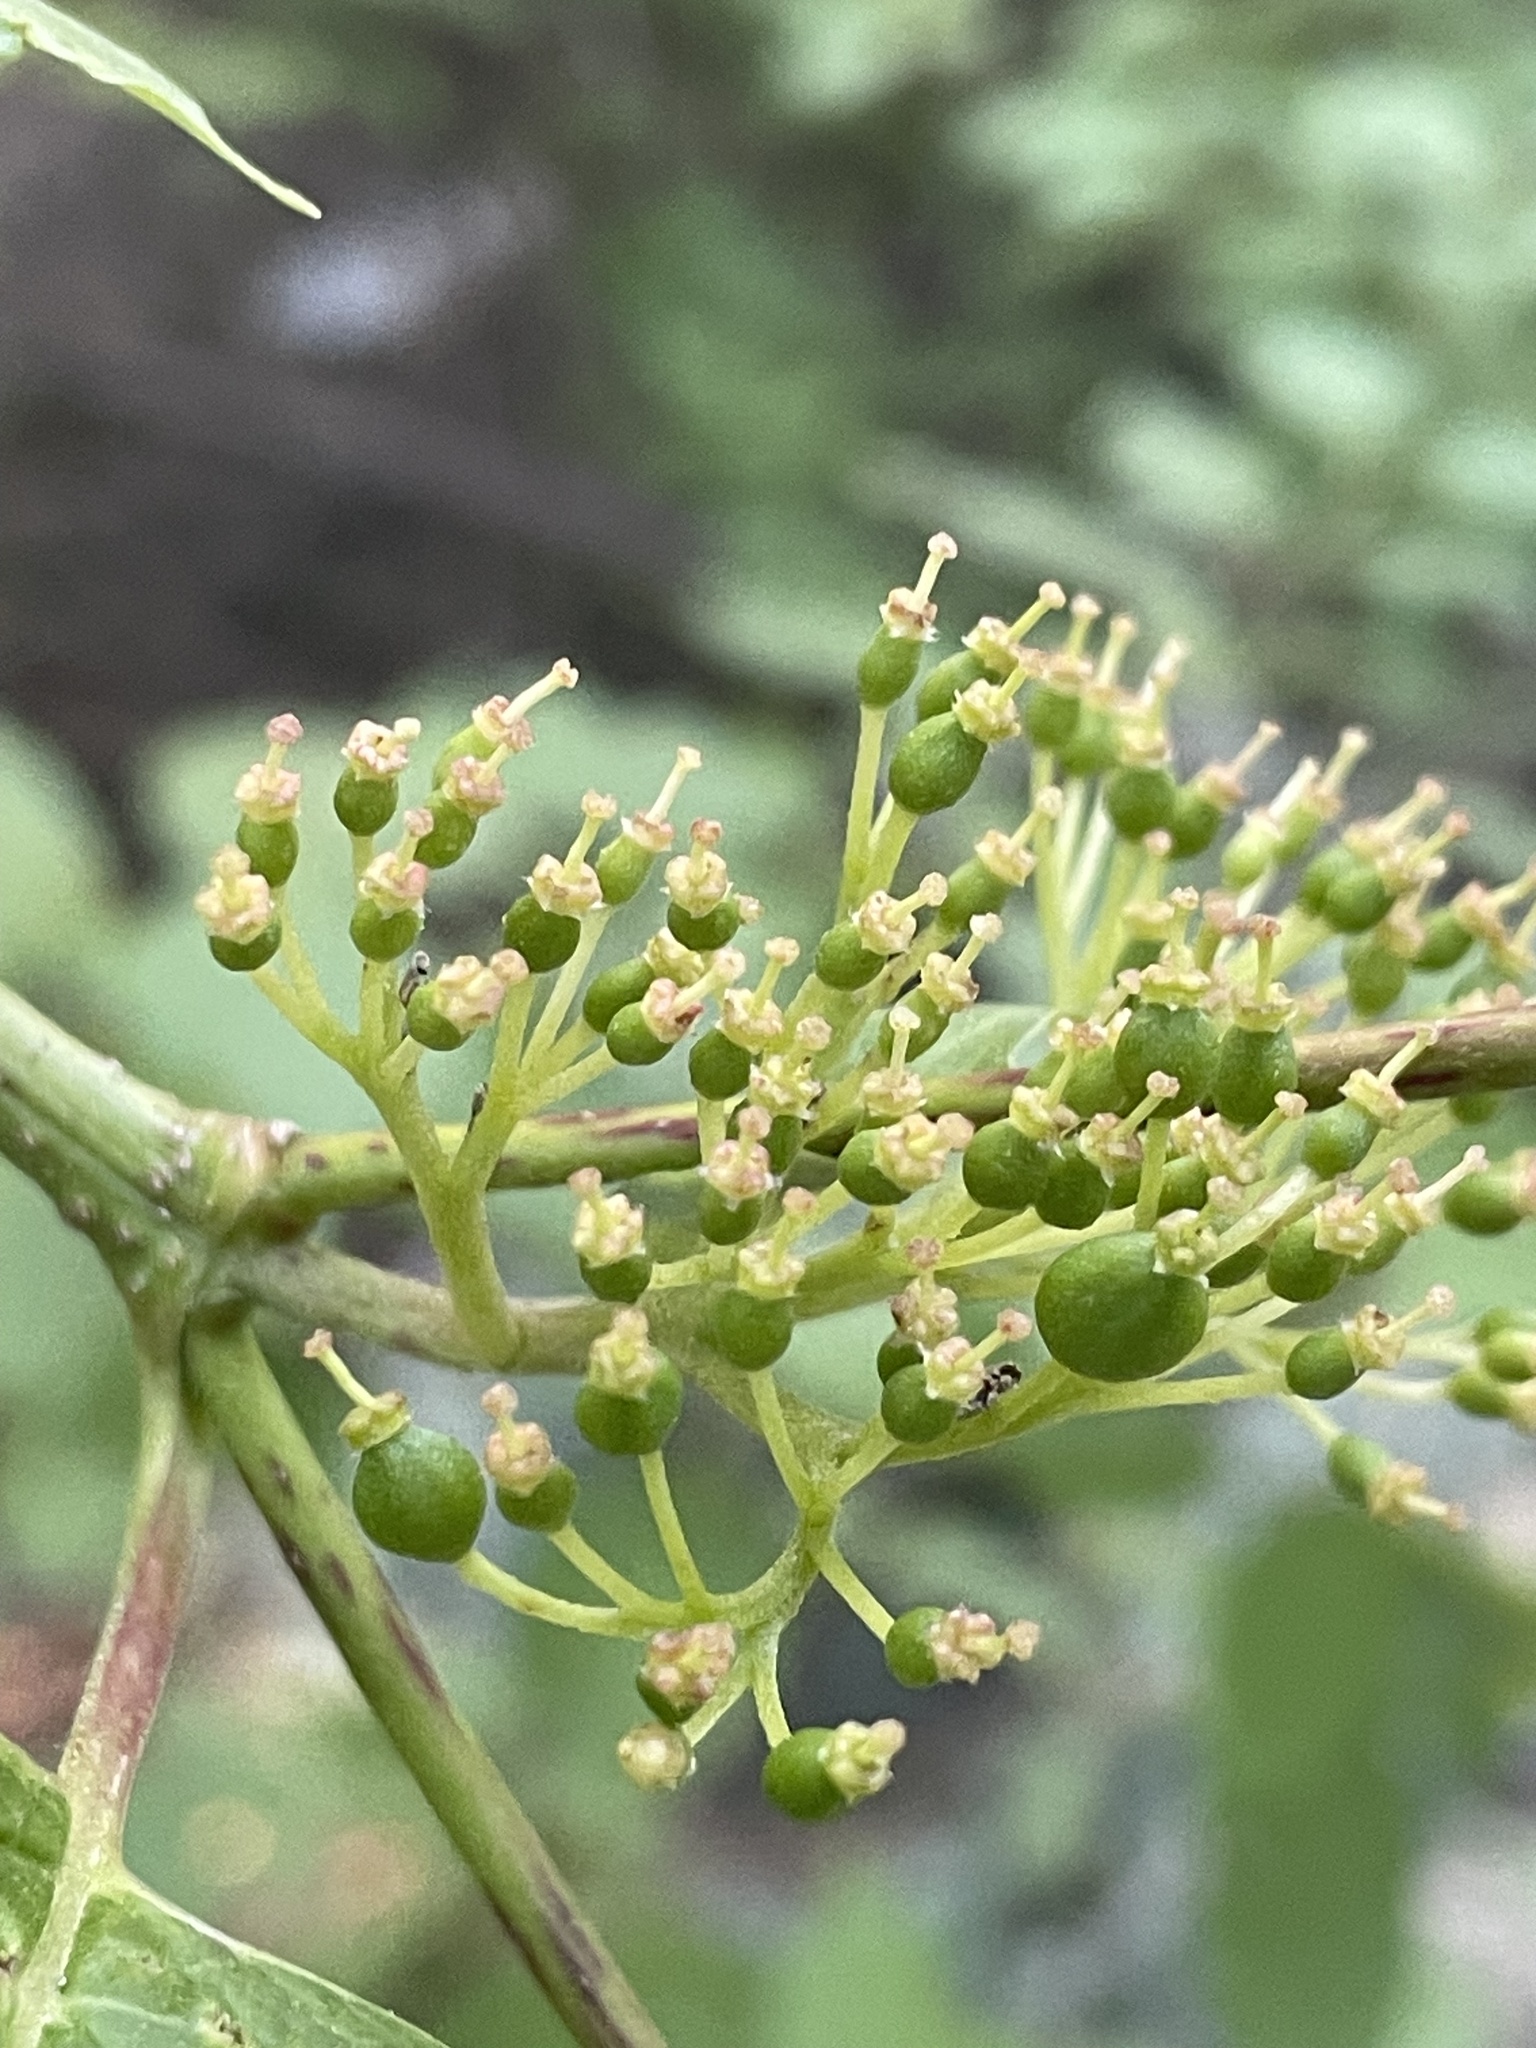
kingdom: Plantae
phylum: Tracheophyta
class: Magnoliopsida
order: Cornales
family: Cornaceae
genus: Cornus
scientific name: Cornus sericea
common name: Red-osier dogwood
